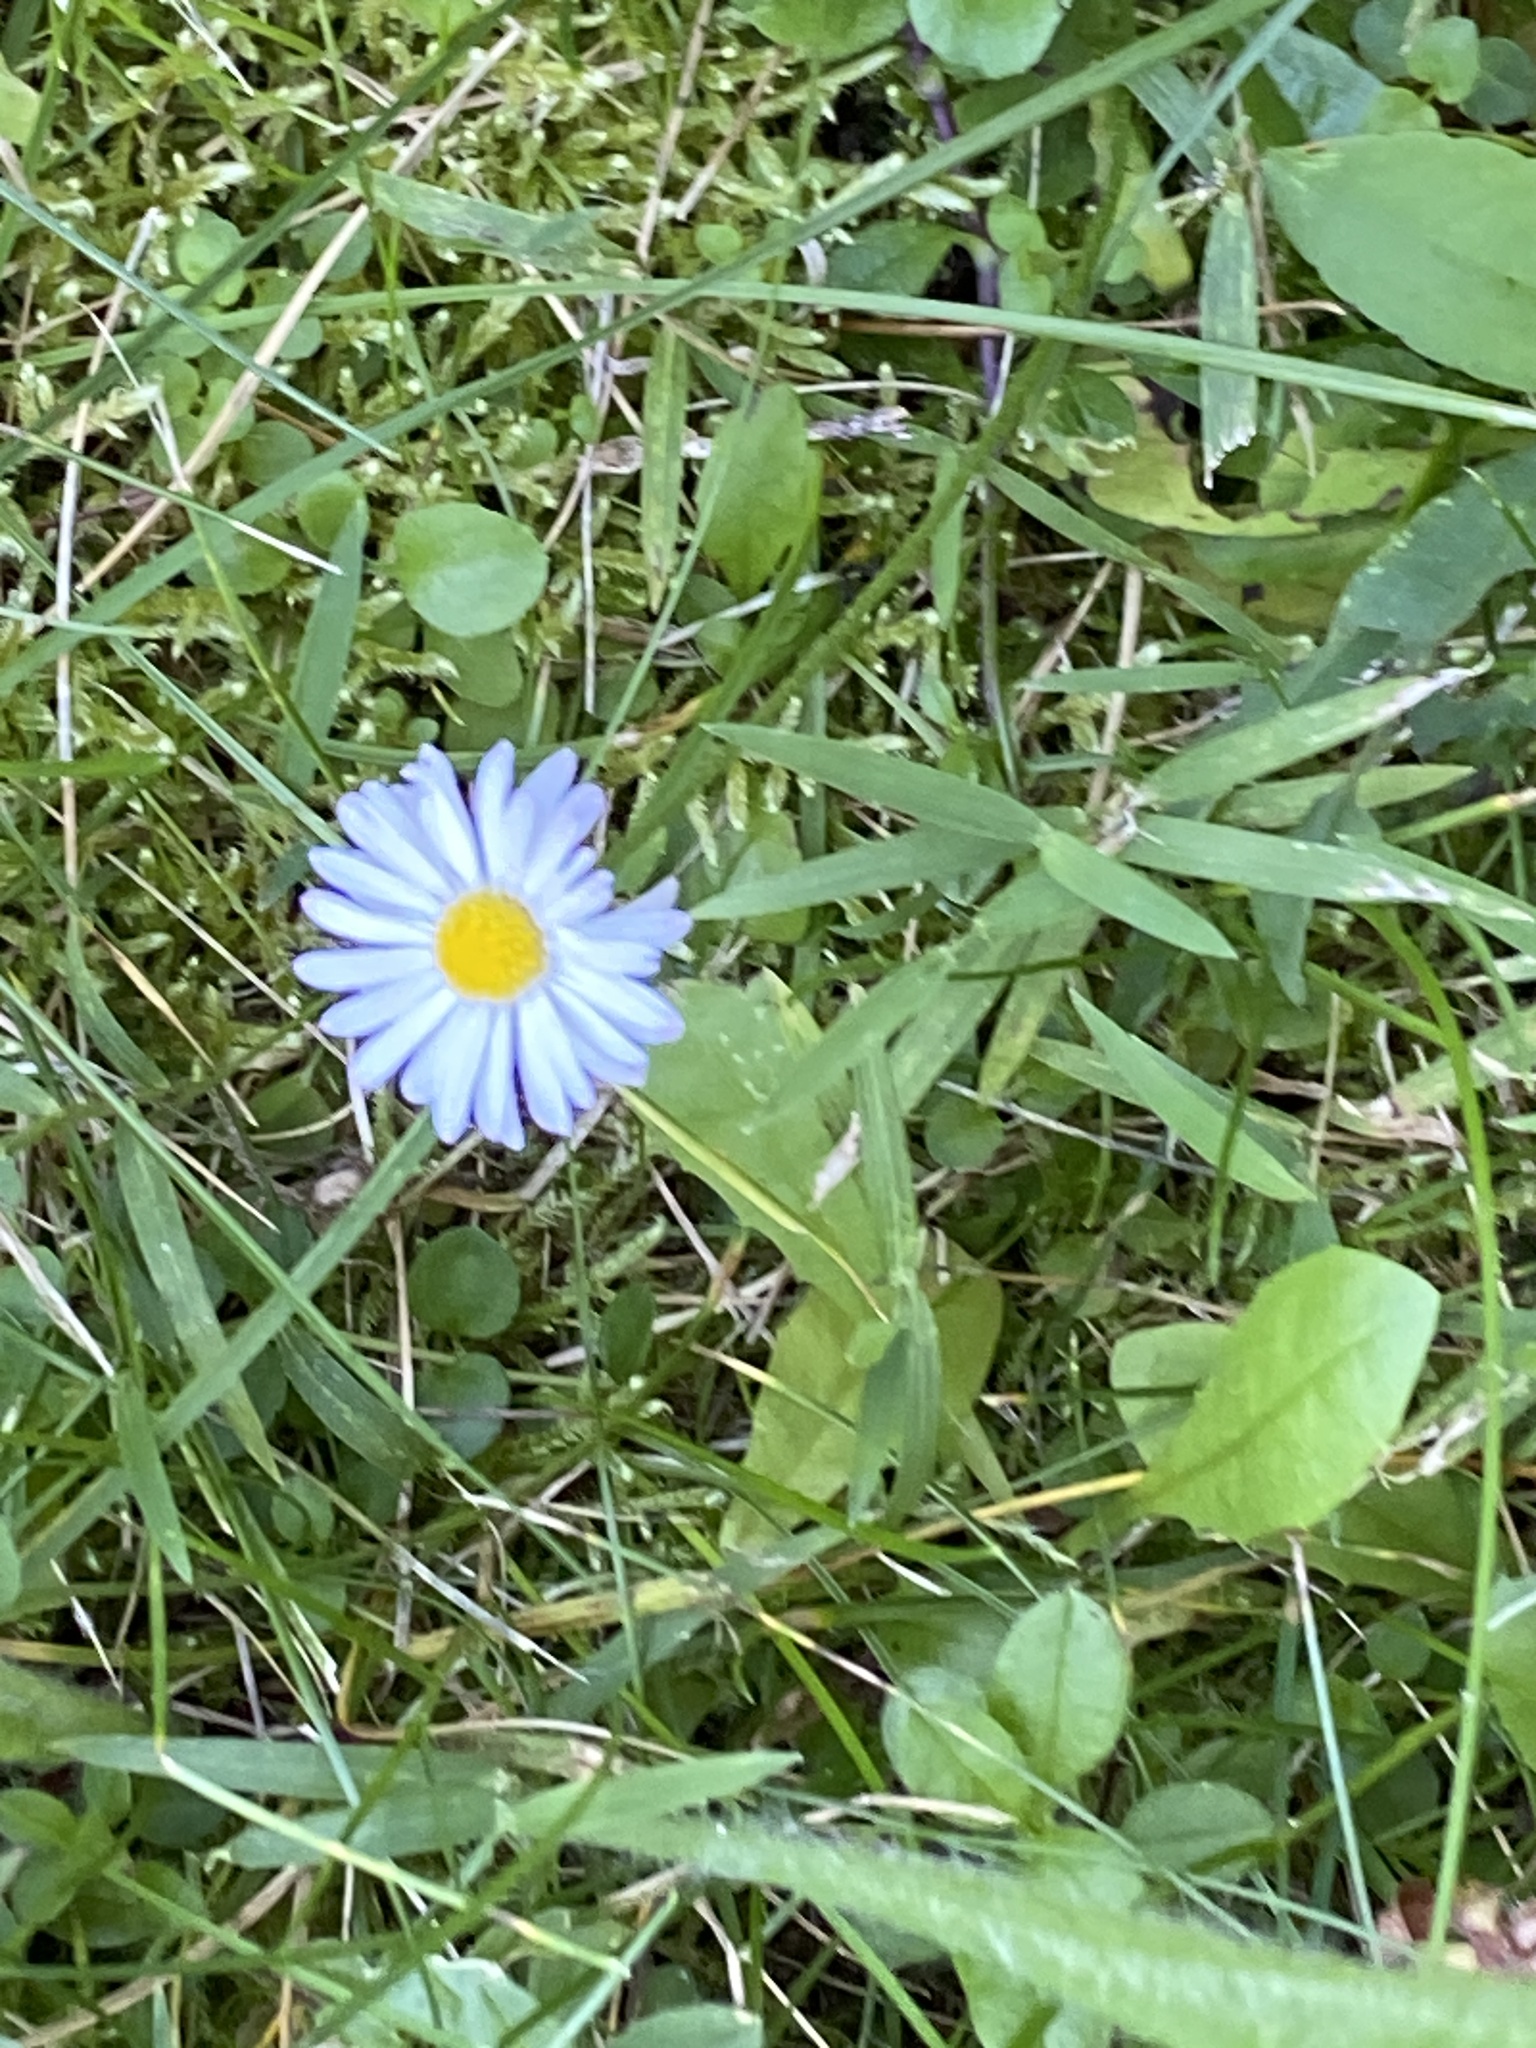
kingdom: Plantae
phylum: Tracheophyta
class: Magnoliopsida
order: Asterales
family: Asteraceae
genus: Bellis
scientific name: Bellis perennis
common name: Lawndaisy
